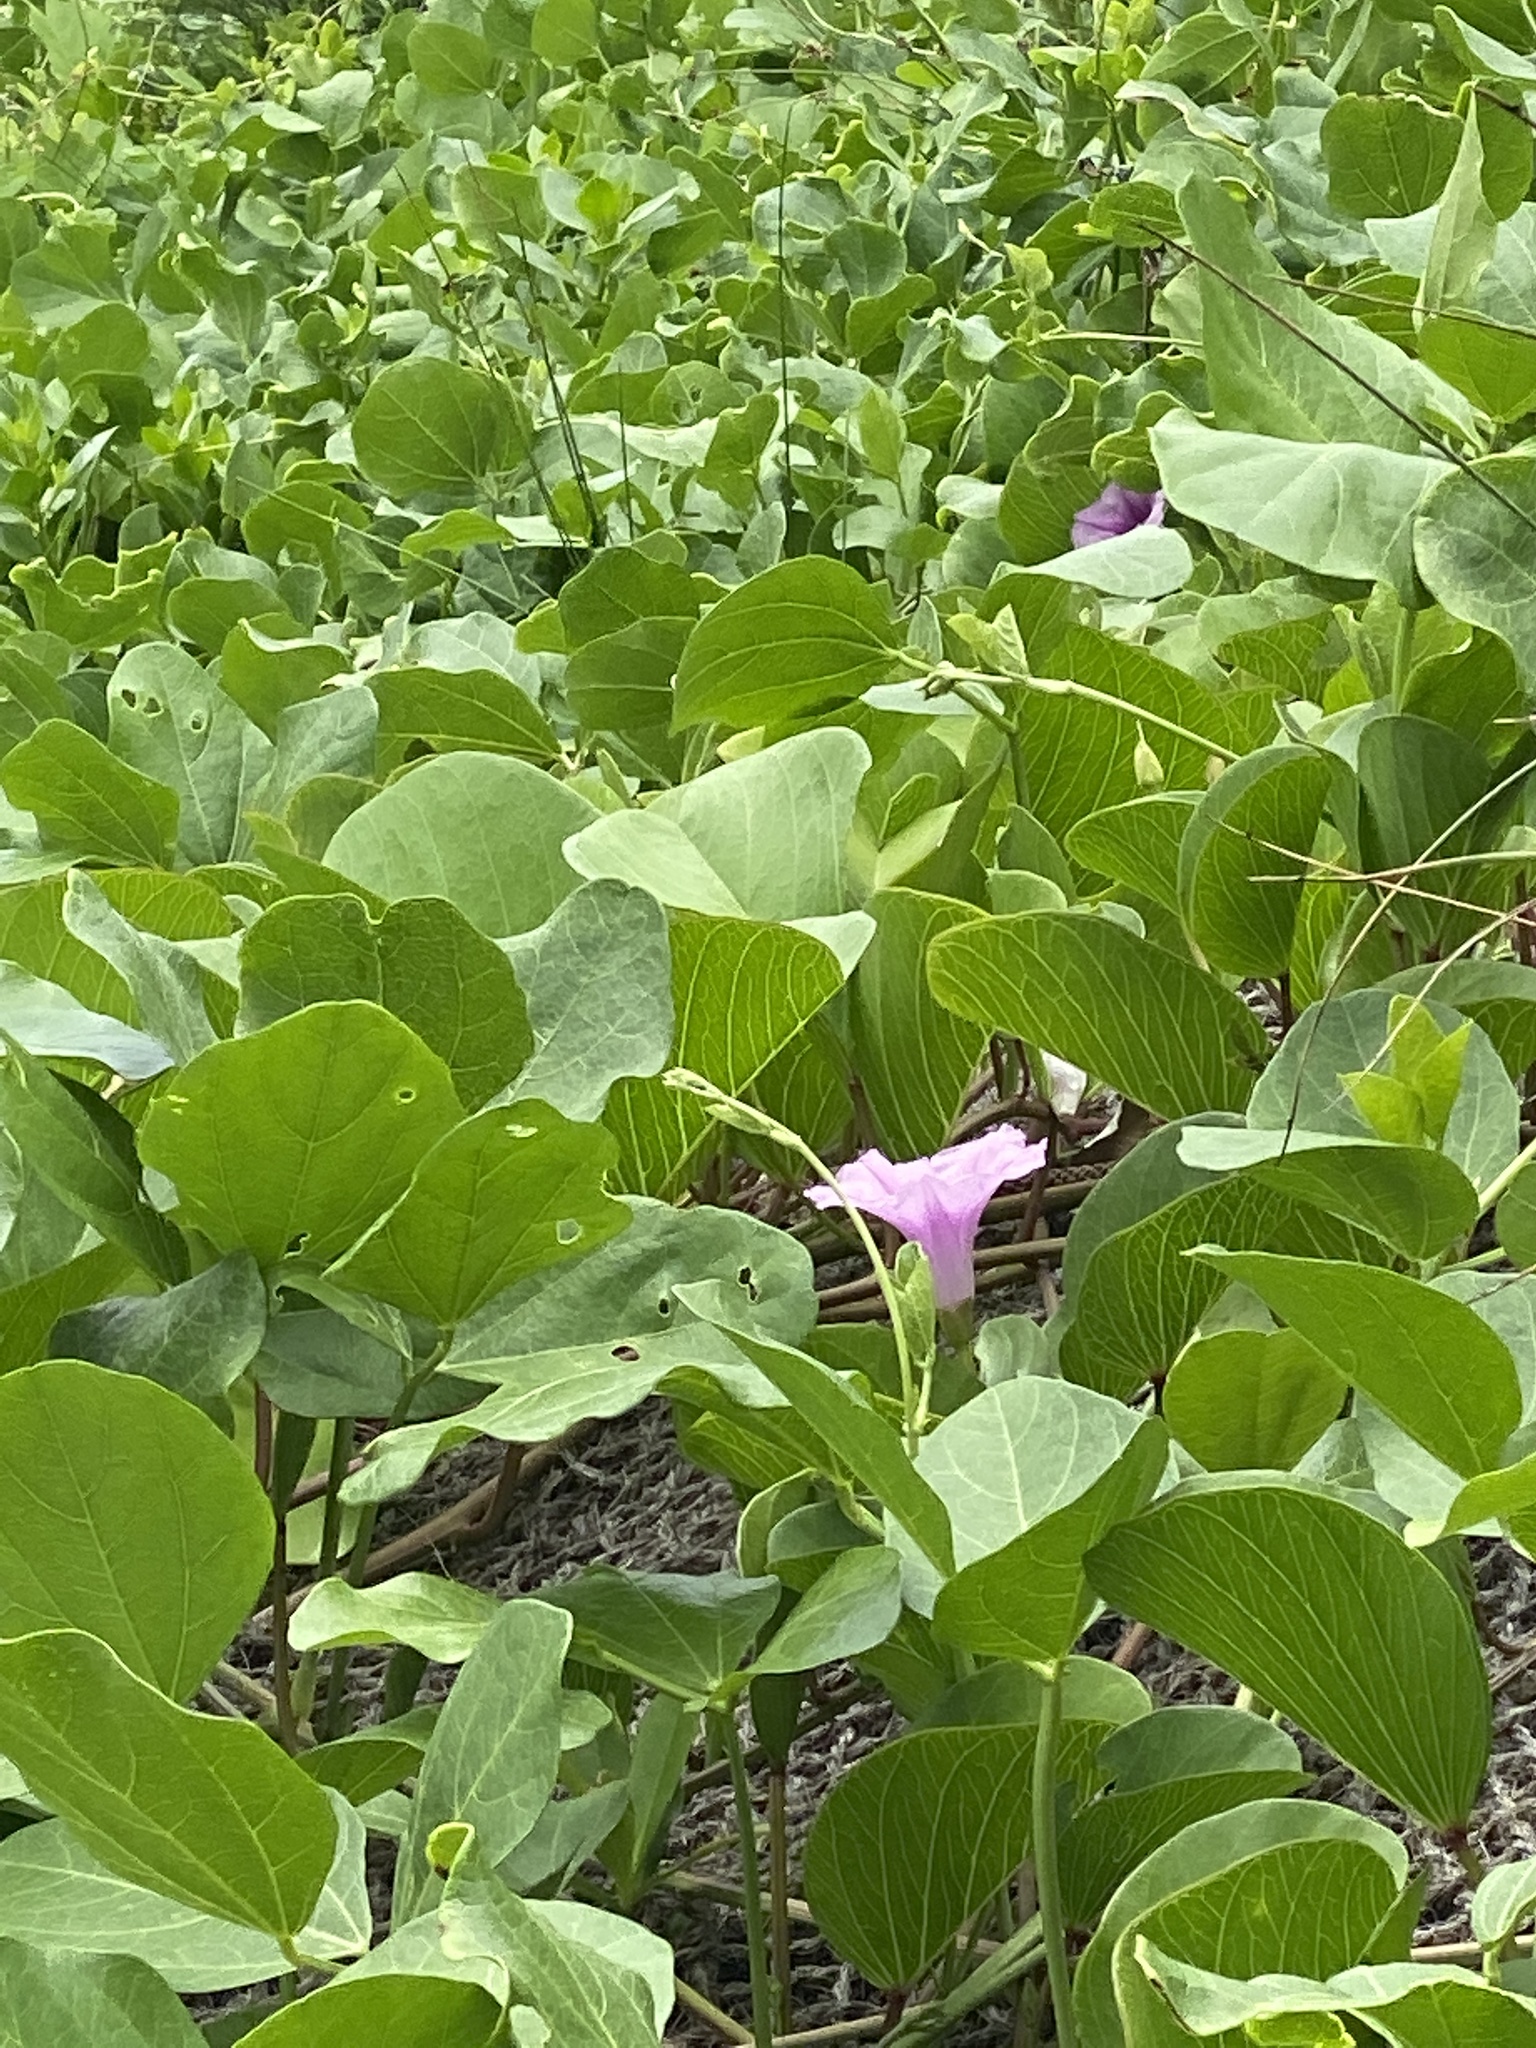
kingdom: Plantae
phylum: Tracheophyta
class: Magnoliopsida
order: Solanales
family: Convolvulaceae
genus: Ipomoea
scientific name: Ipomoea pes-caprae
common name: Beach morning glory
